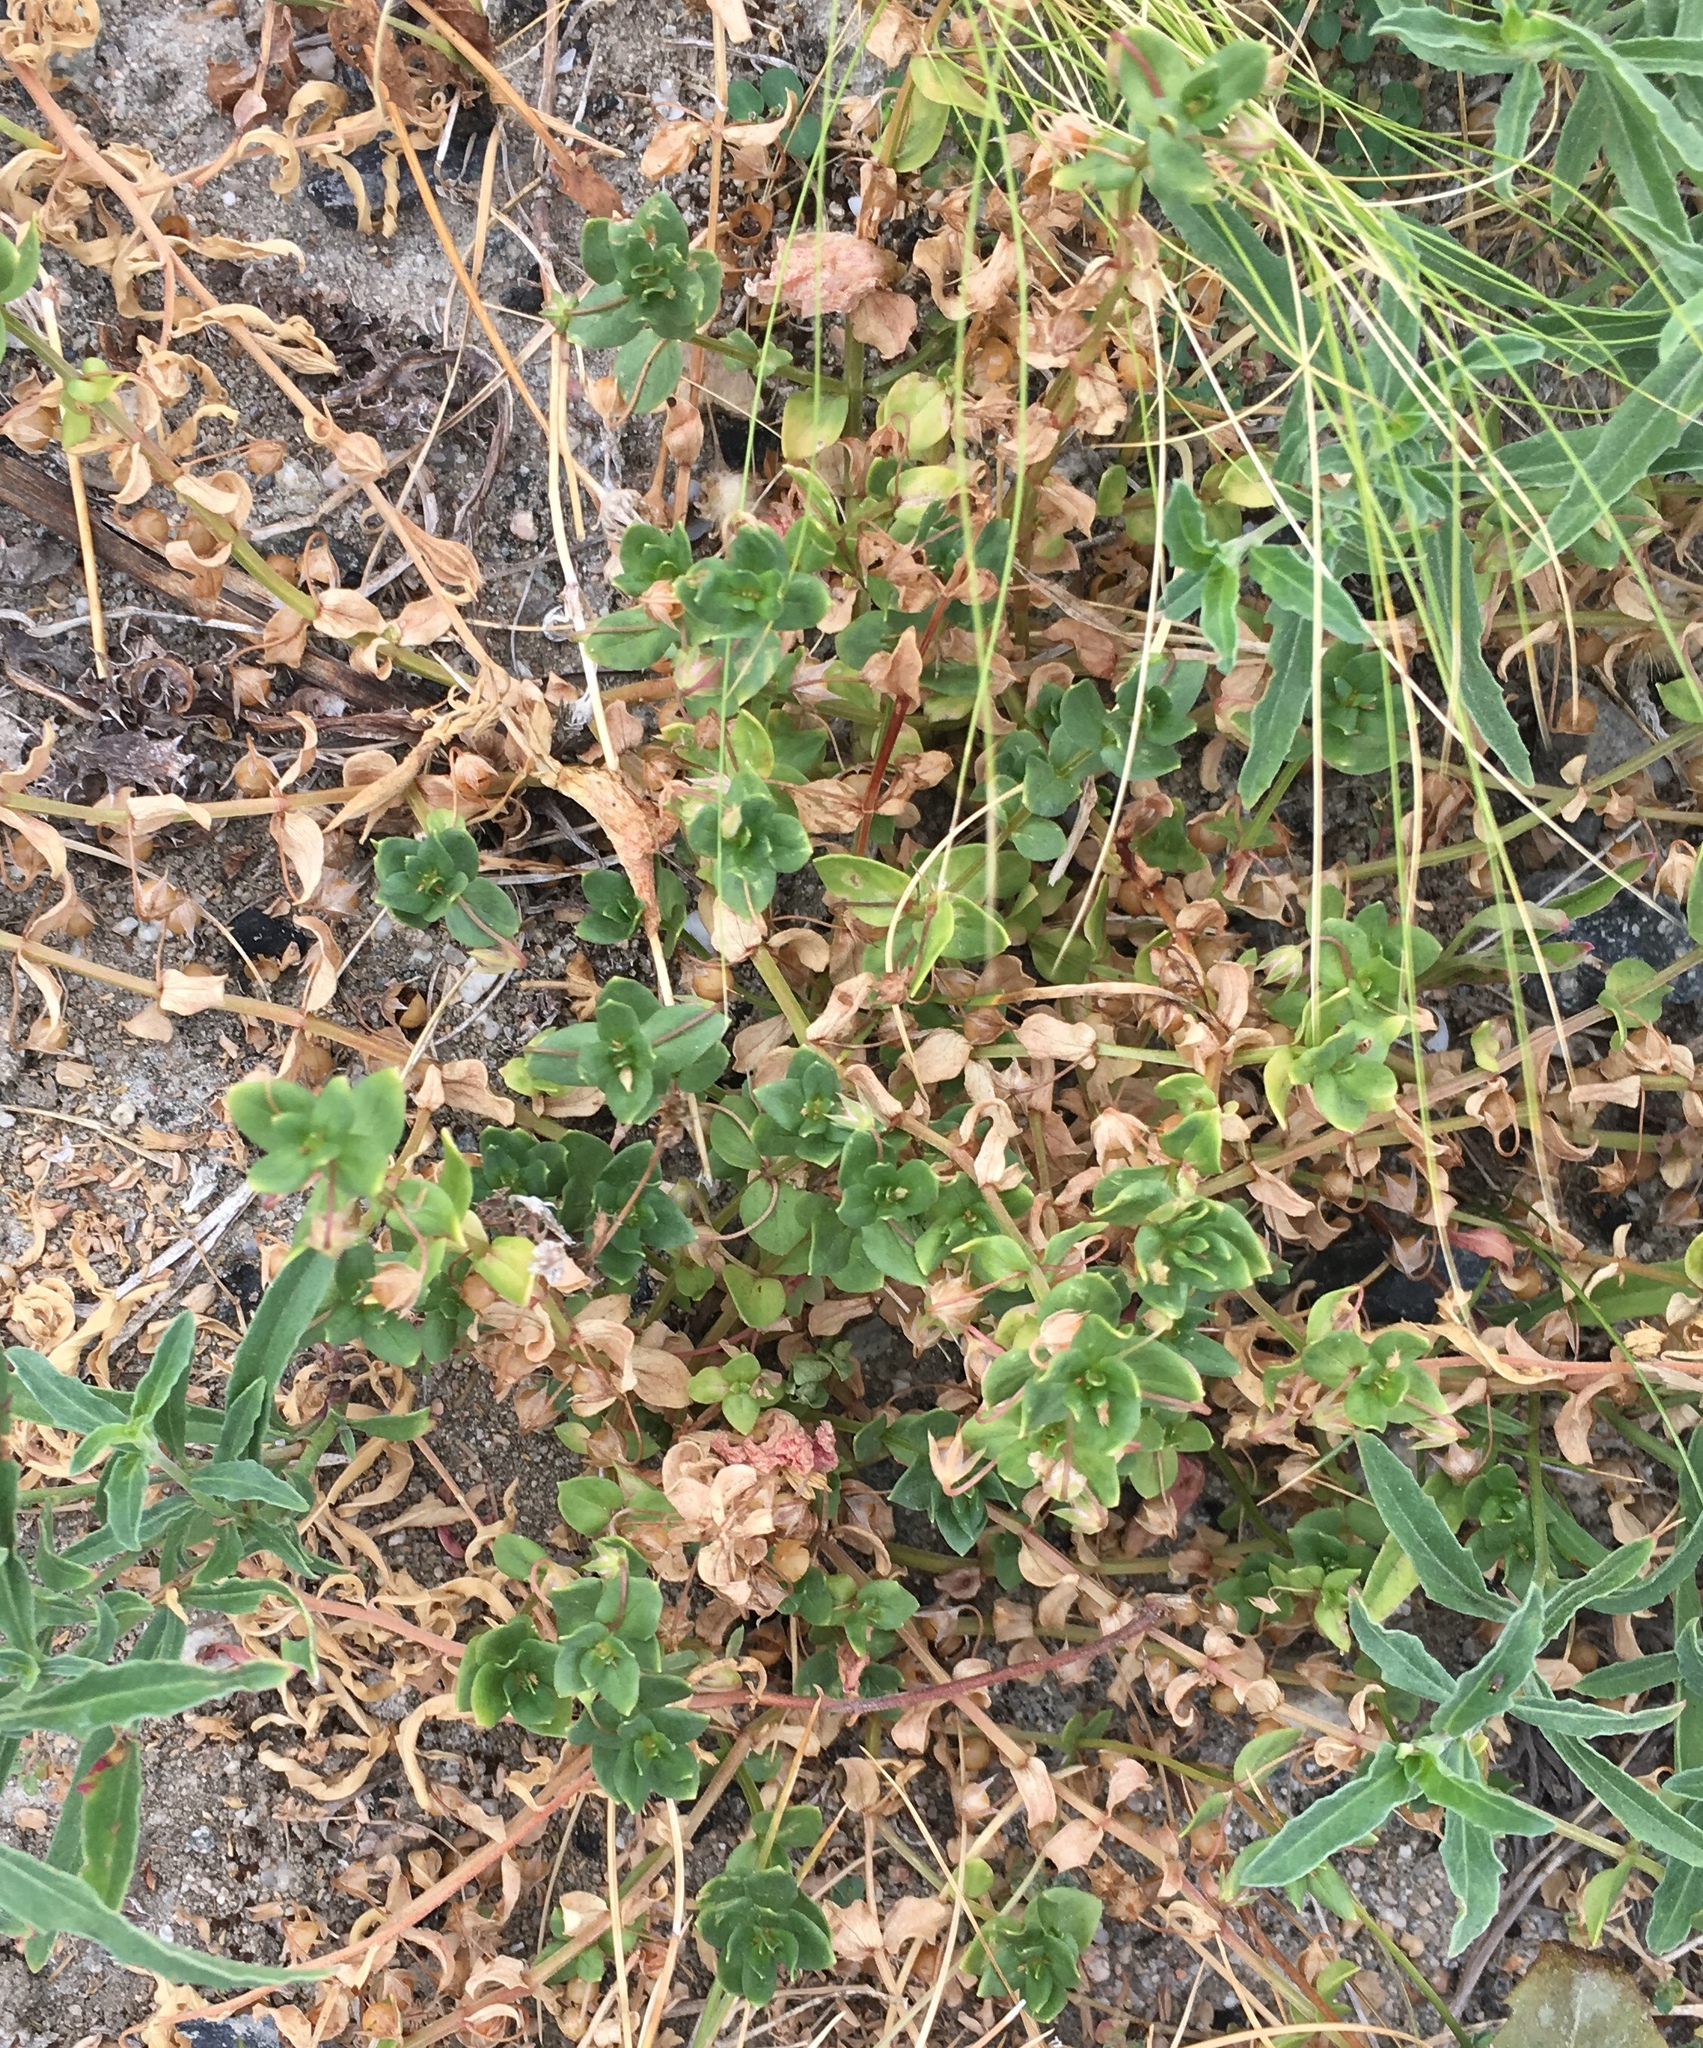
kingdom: Plantae
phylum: Tracheophyta
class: Magnoliopsida
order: Ericales
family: Primulaceae
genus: Lysimachia
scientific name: Lysimachia arvensis
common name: Scarlet pimpernel
